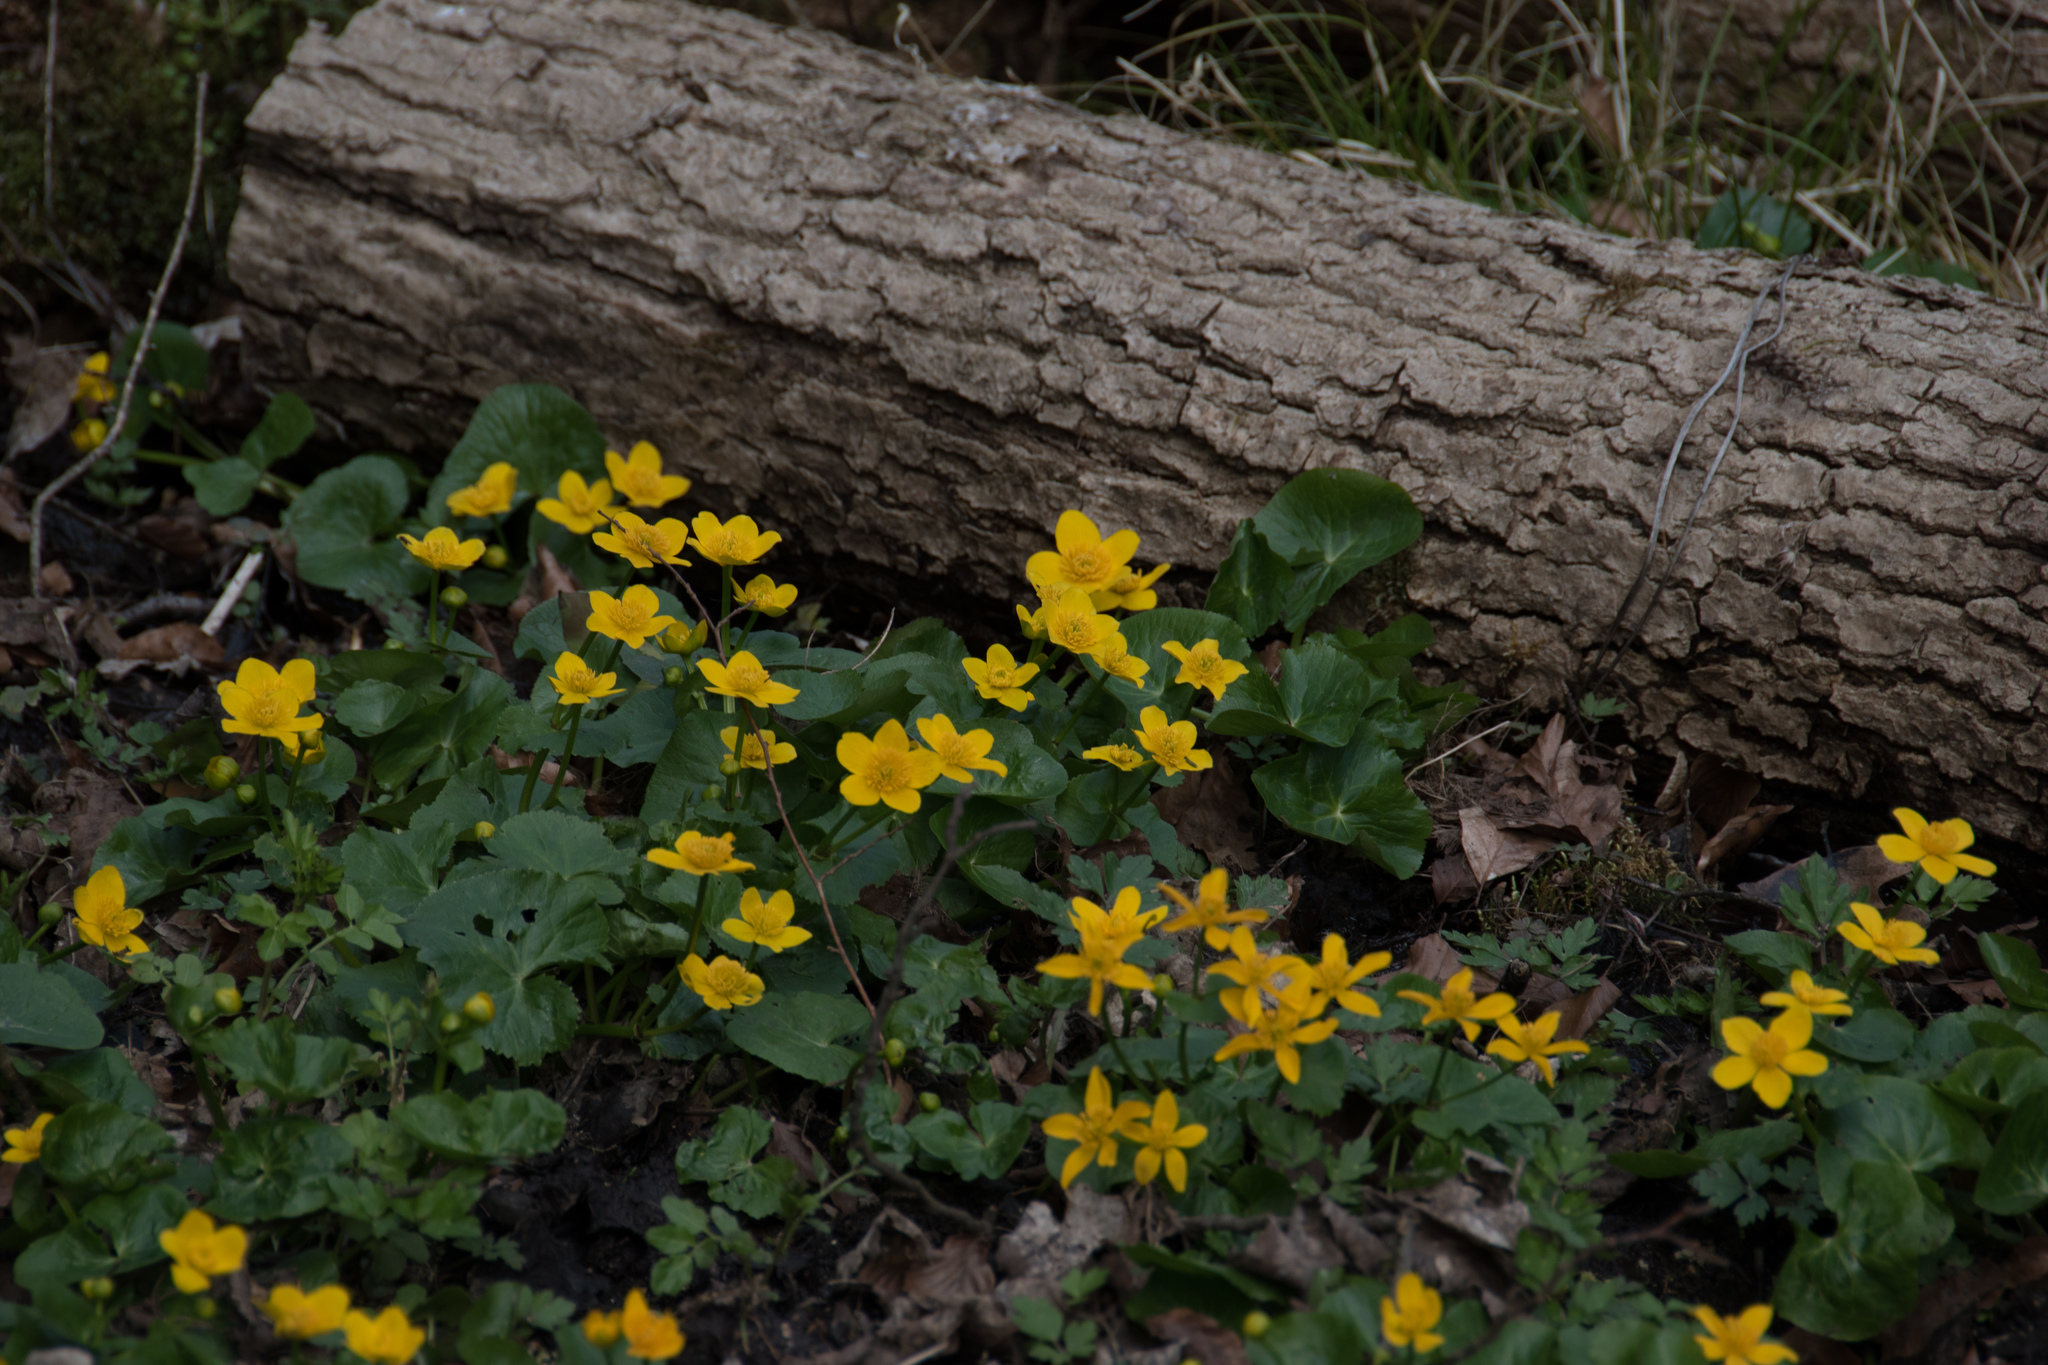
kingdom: Plantae
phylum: Tracheophyta
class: Magnoliopsida
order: Ranunculales
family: Ranunculaceae
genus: Caltha
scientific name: Caltha palustris
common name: Marsh marigold
